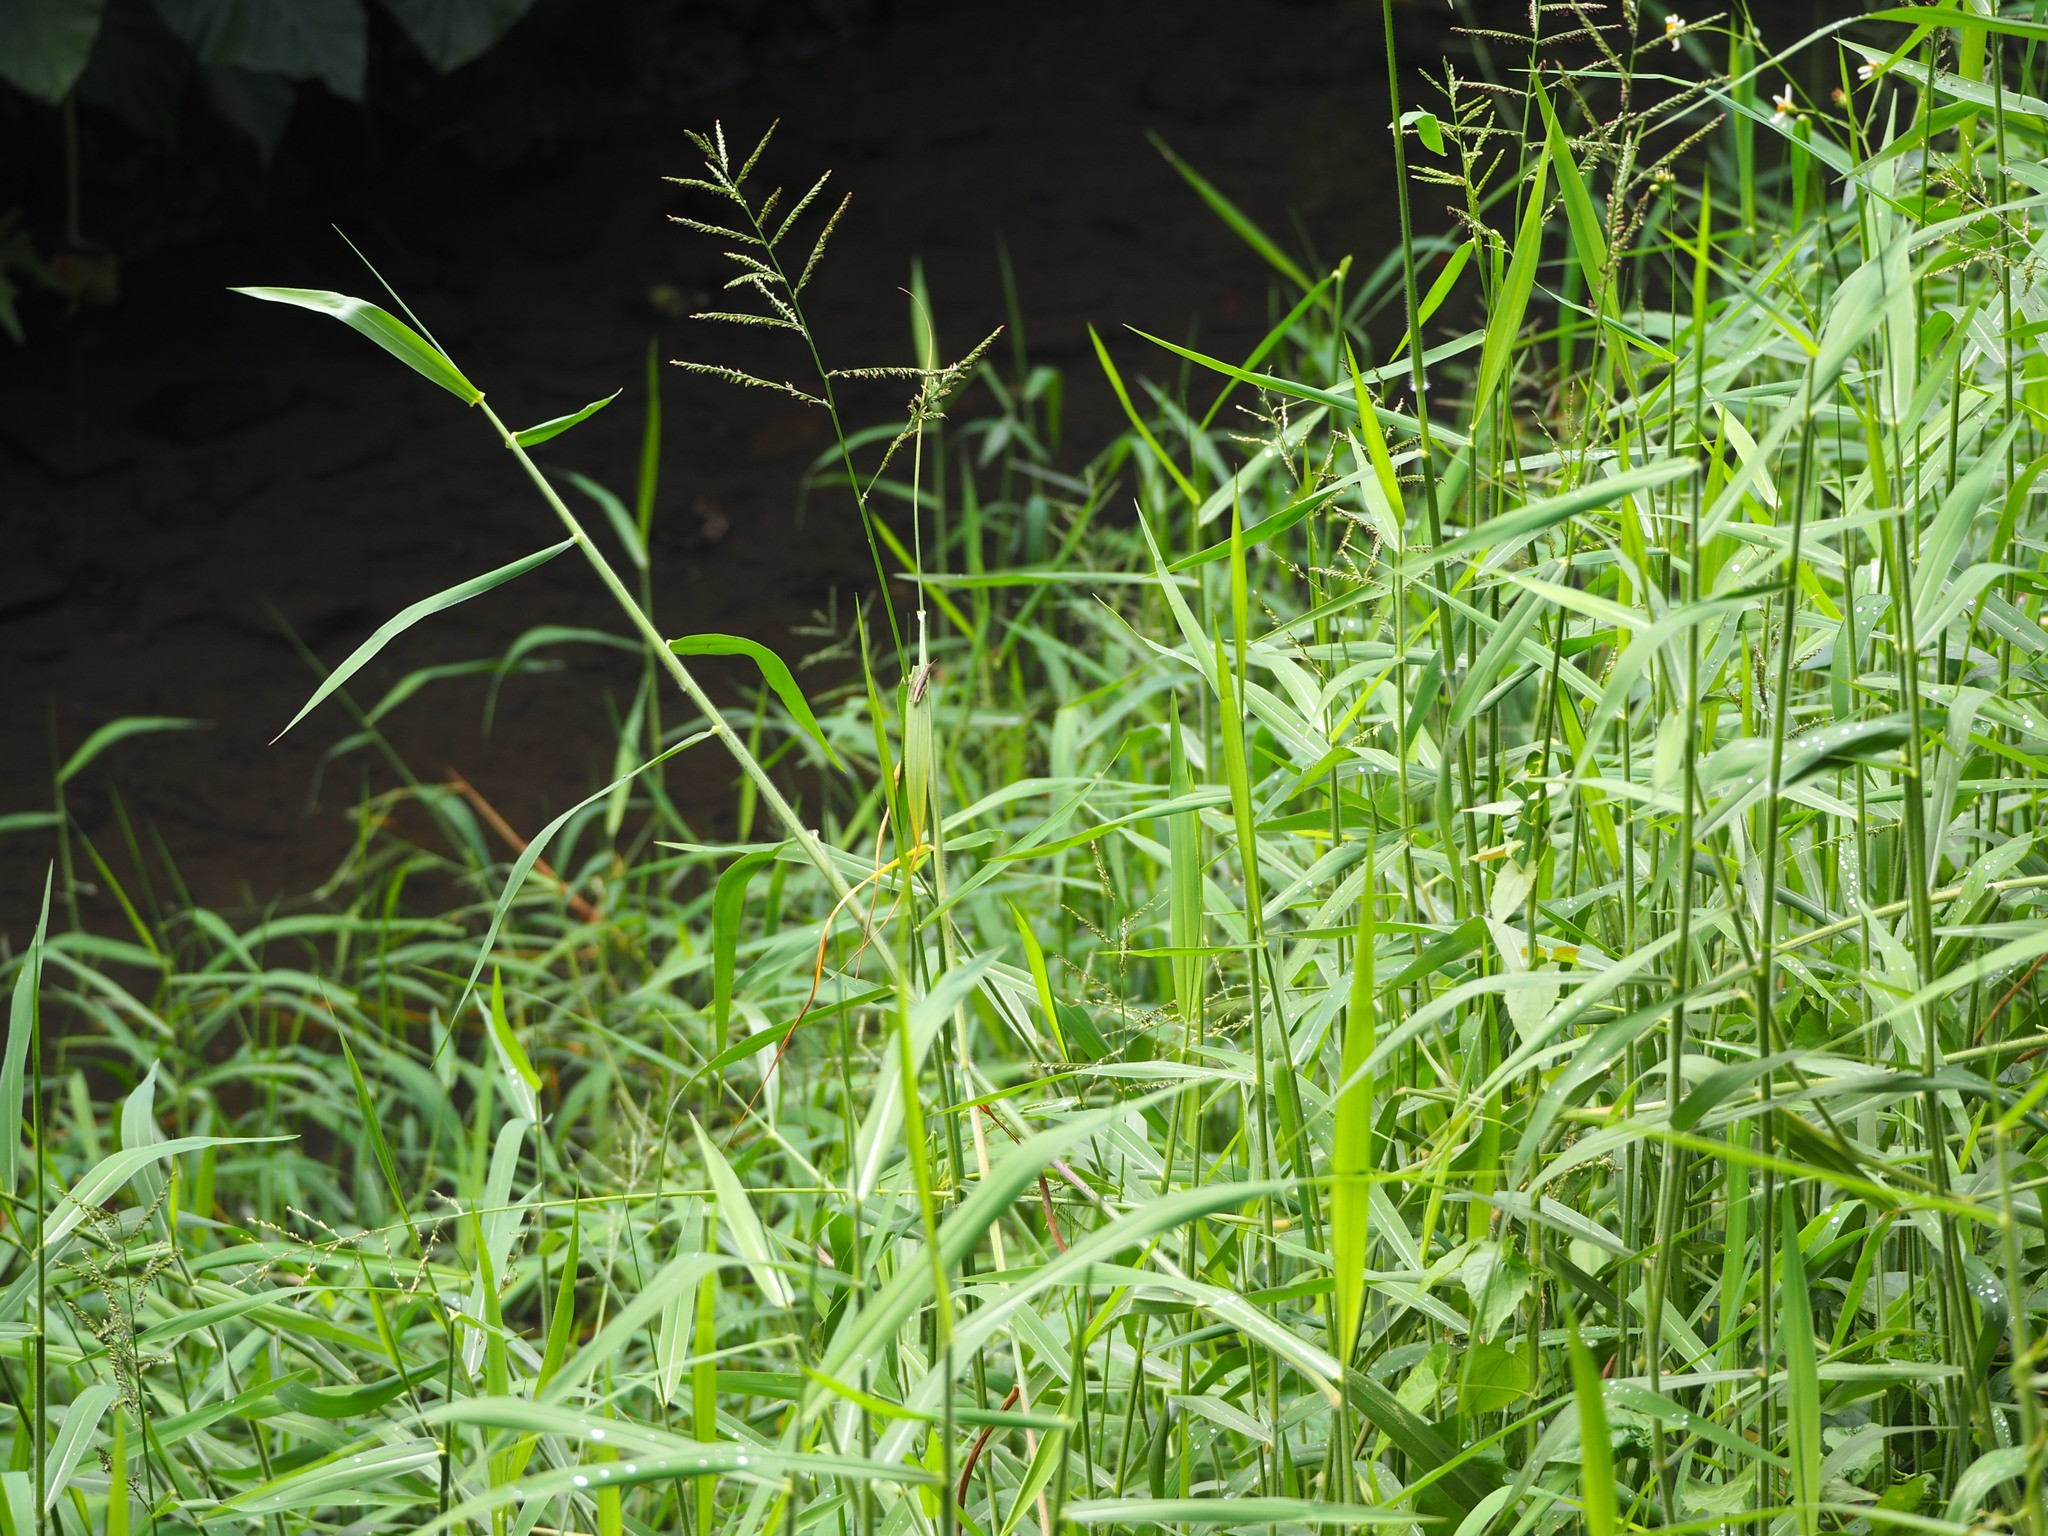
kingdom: Plantae
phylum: Tracheophyta
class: Liliopsida
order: Poales
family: Poaceae
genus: Urochloa
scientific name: Urochloa mutica
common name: Para grass
